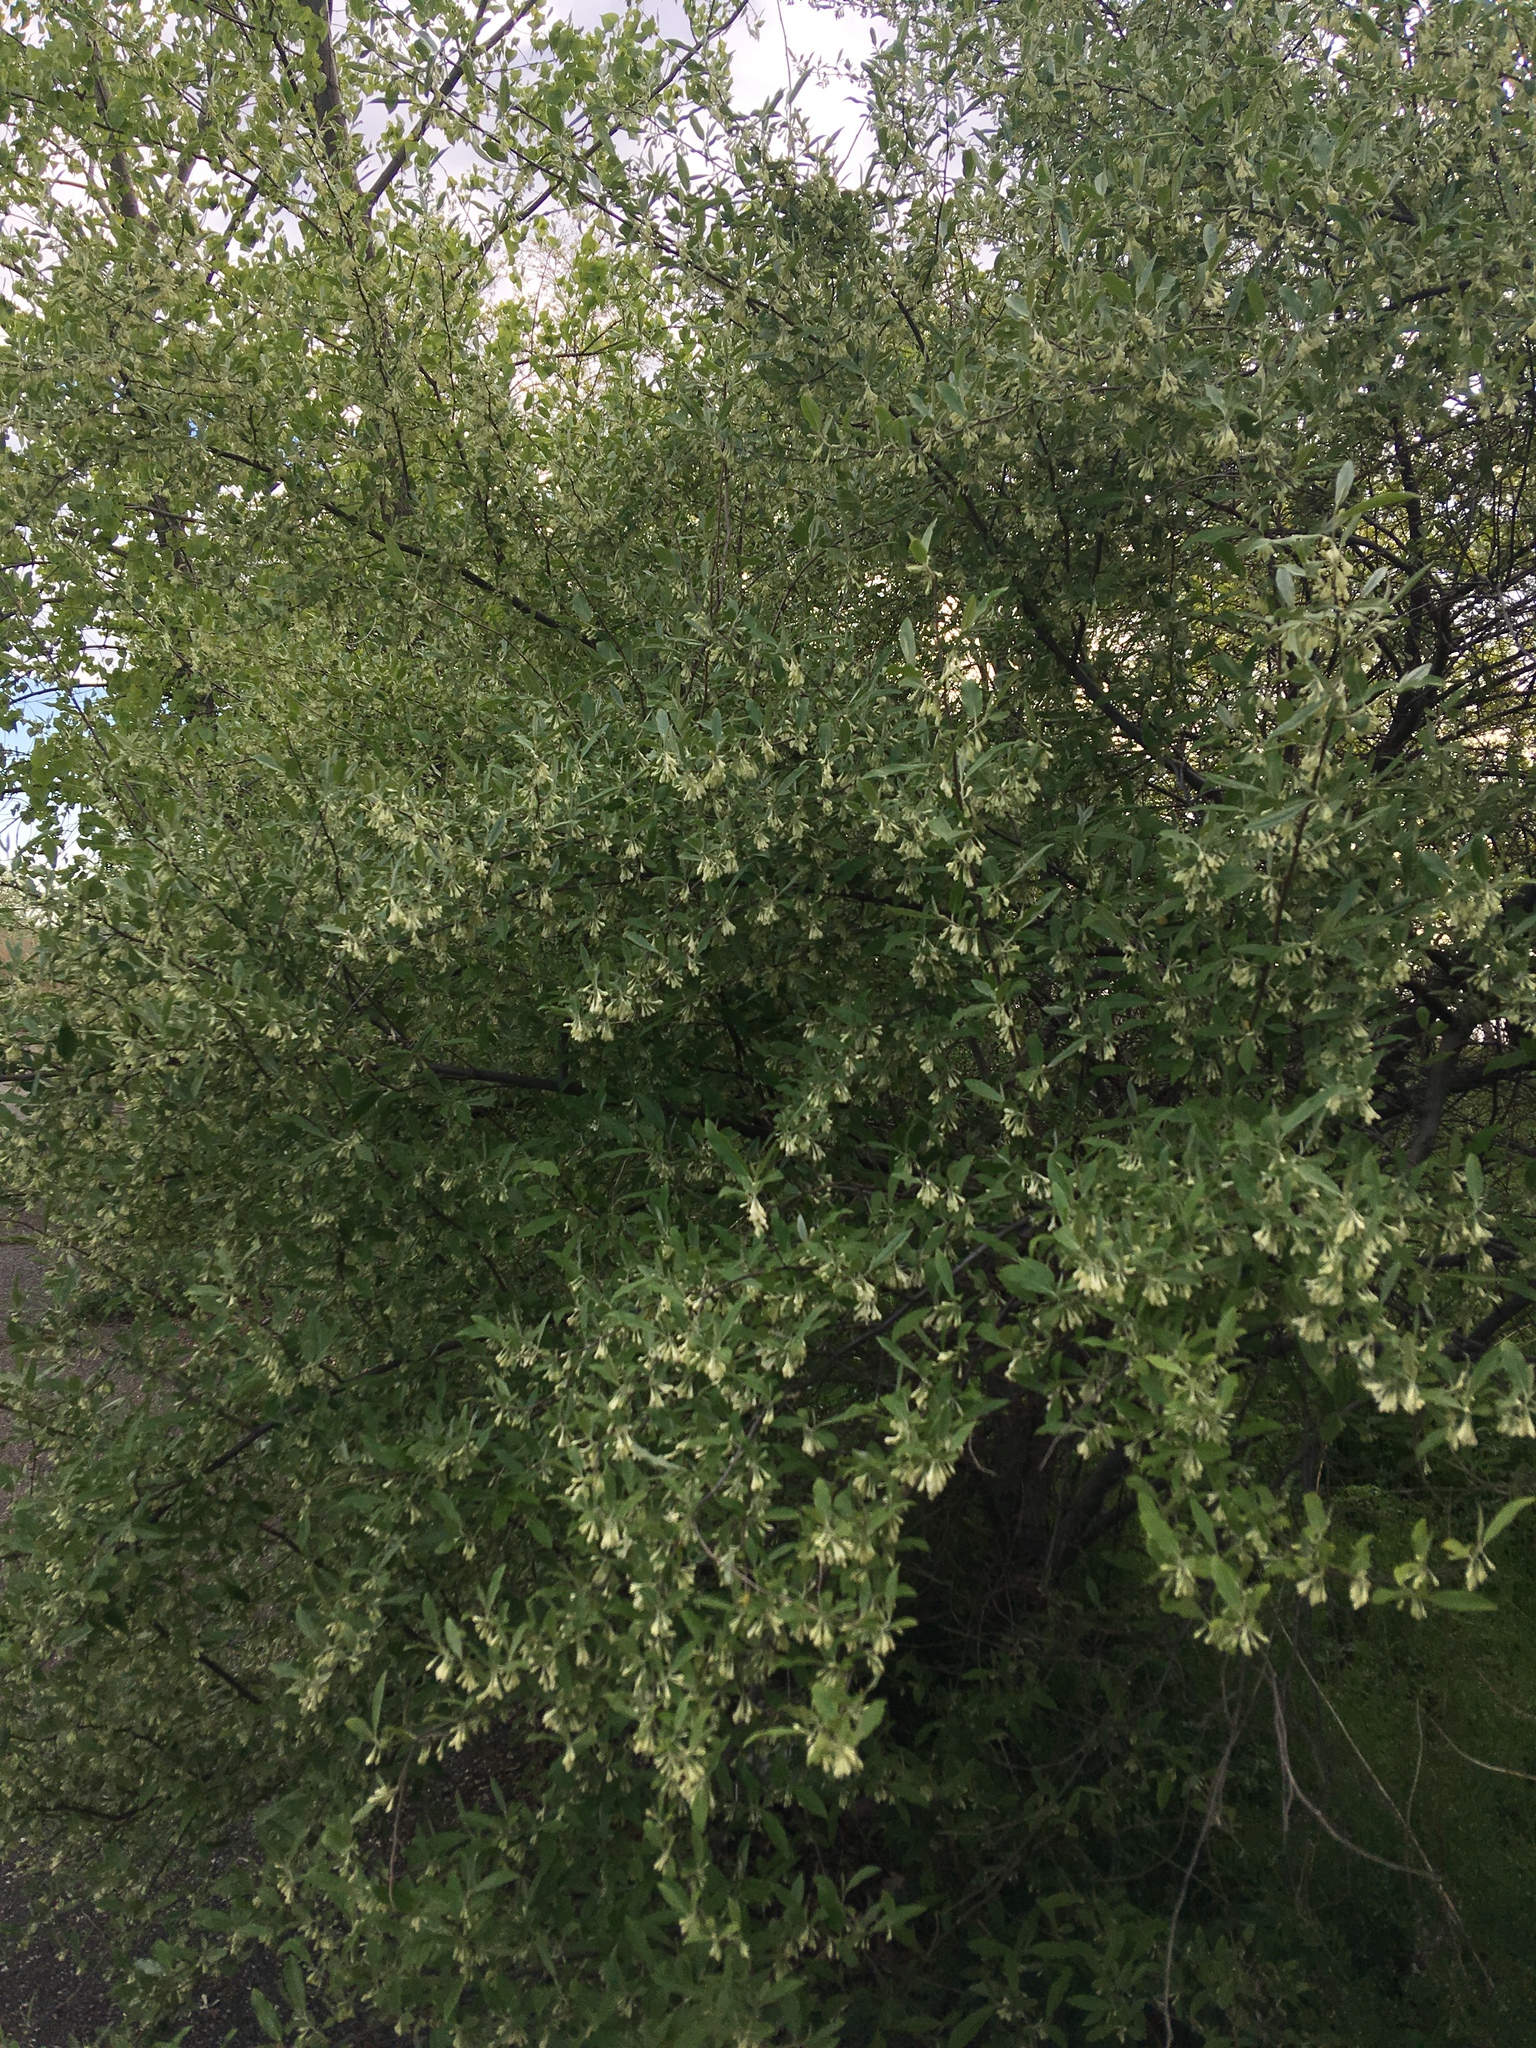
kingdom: Plantae
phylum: Tracheophyta
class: Magnoliopsida
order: Rosales
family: Elaeagnaceae
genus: Elaeagnus
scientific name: Elaeagnus umbellata
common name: Autumn olive
